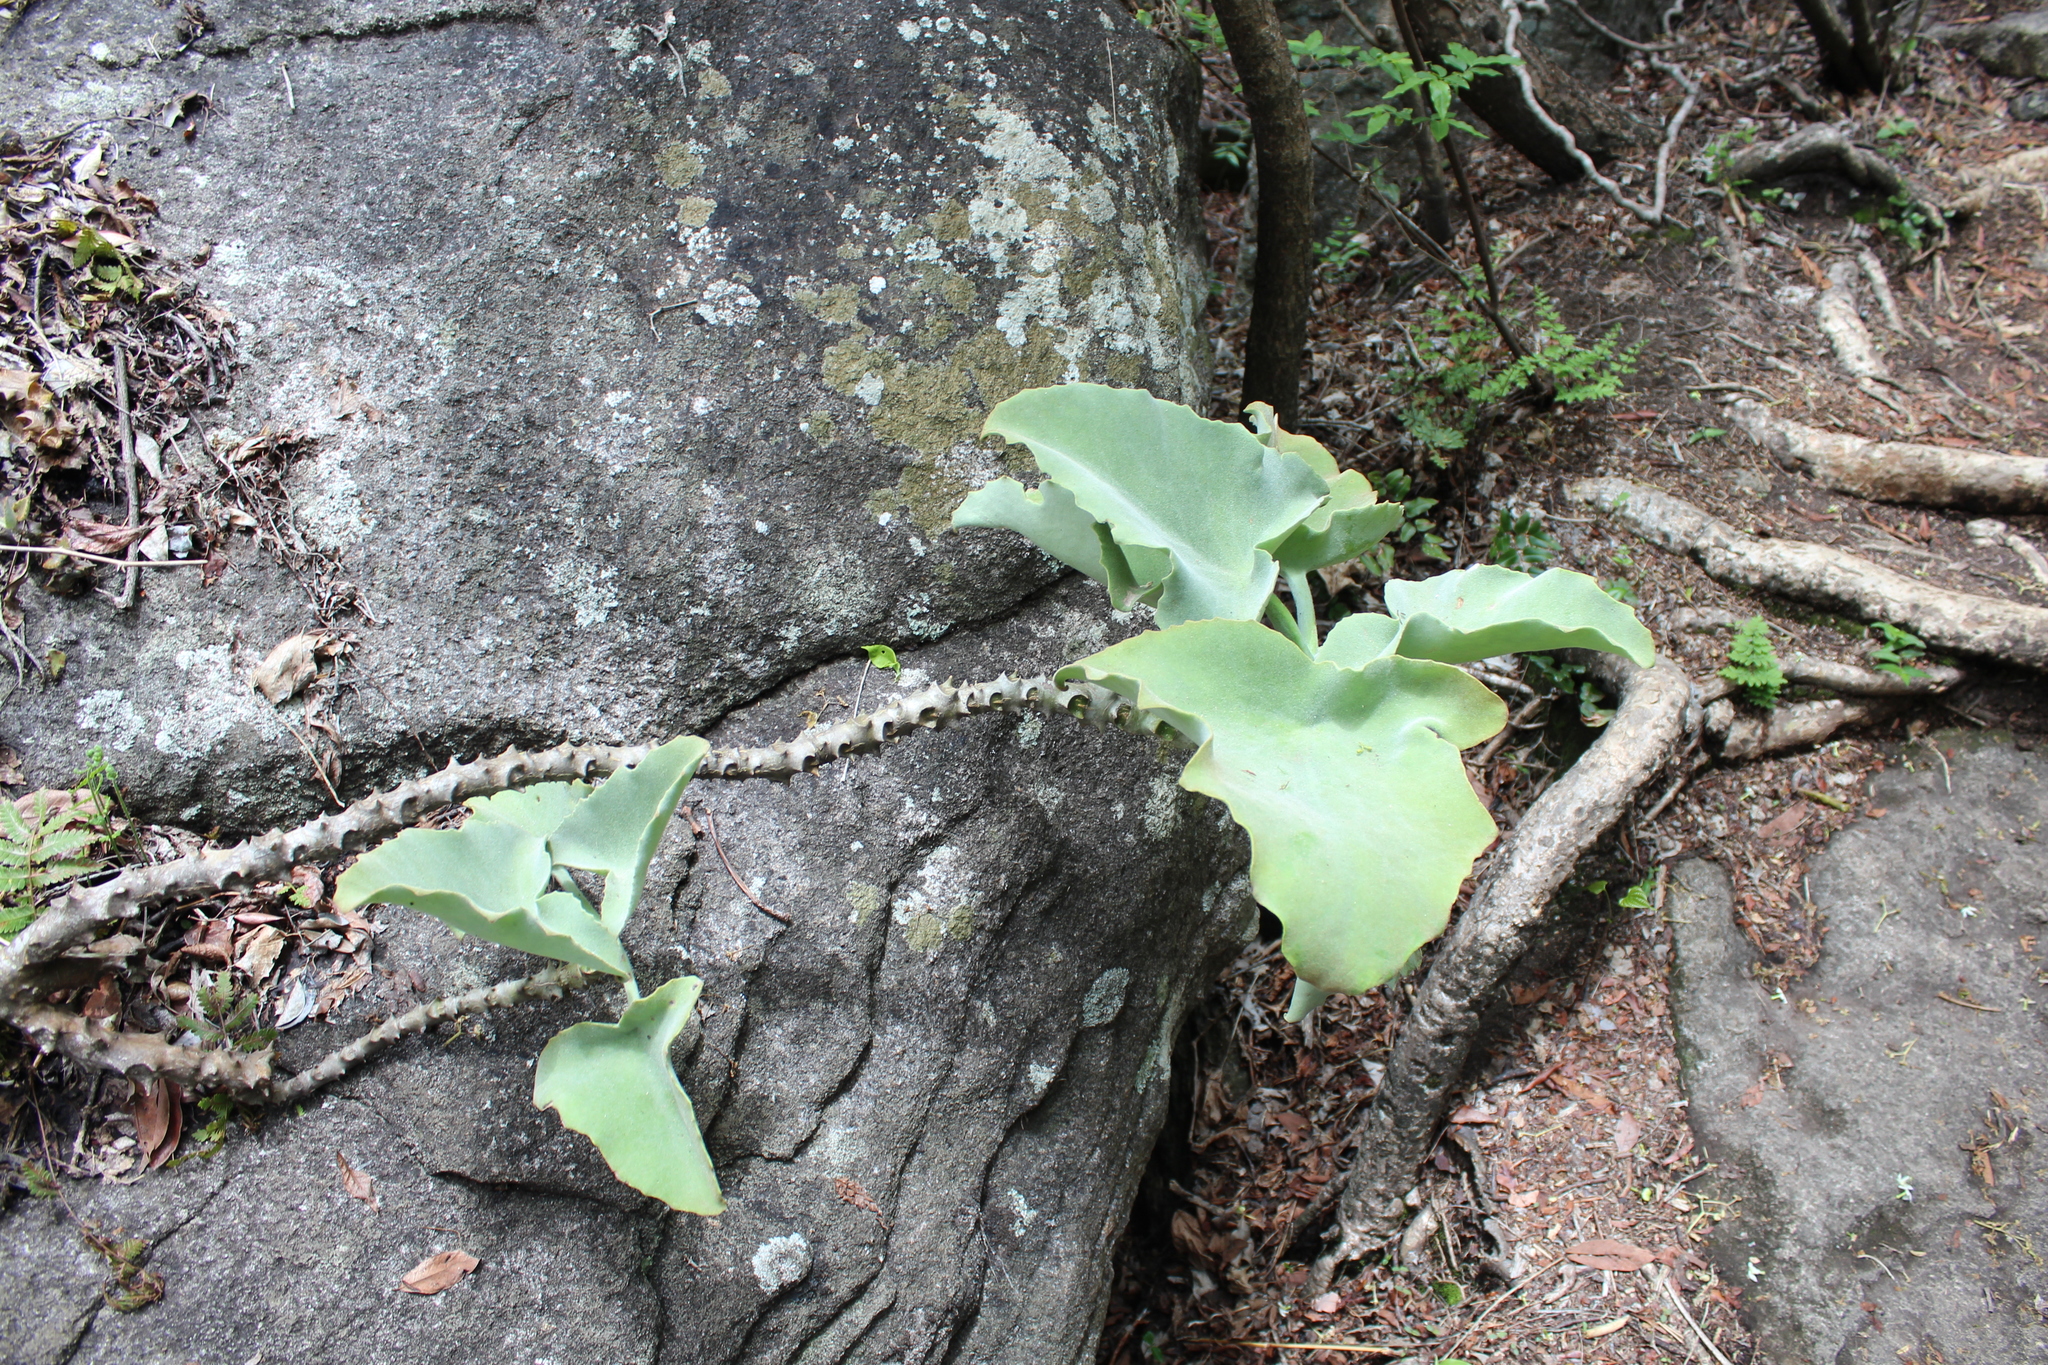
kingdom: Plantae
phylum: Tracheophyta
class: Magnoliopsida
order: Saxifragales
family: Crassulaceae
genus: Kalanchoe
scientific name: Kalanchoe beharensis
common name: Velvet leaf
